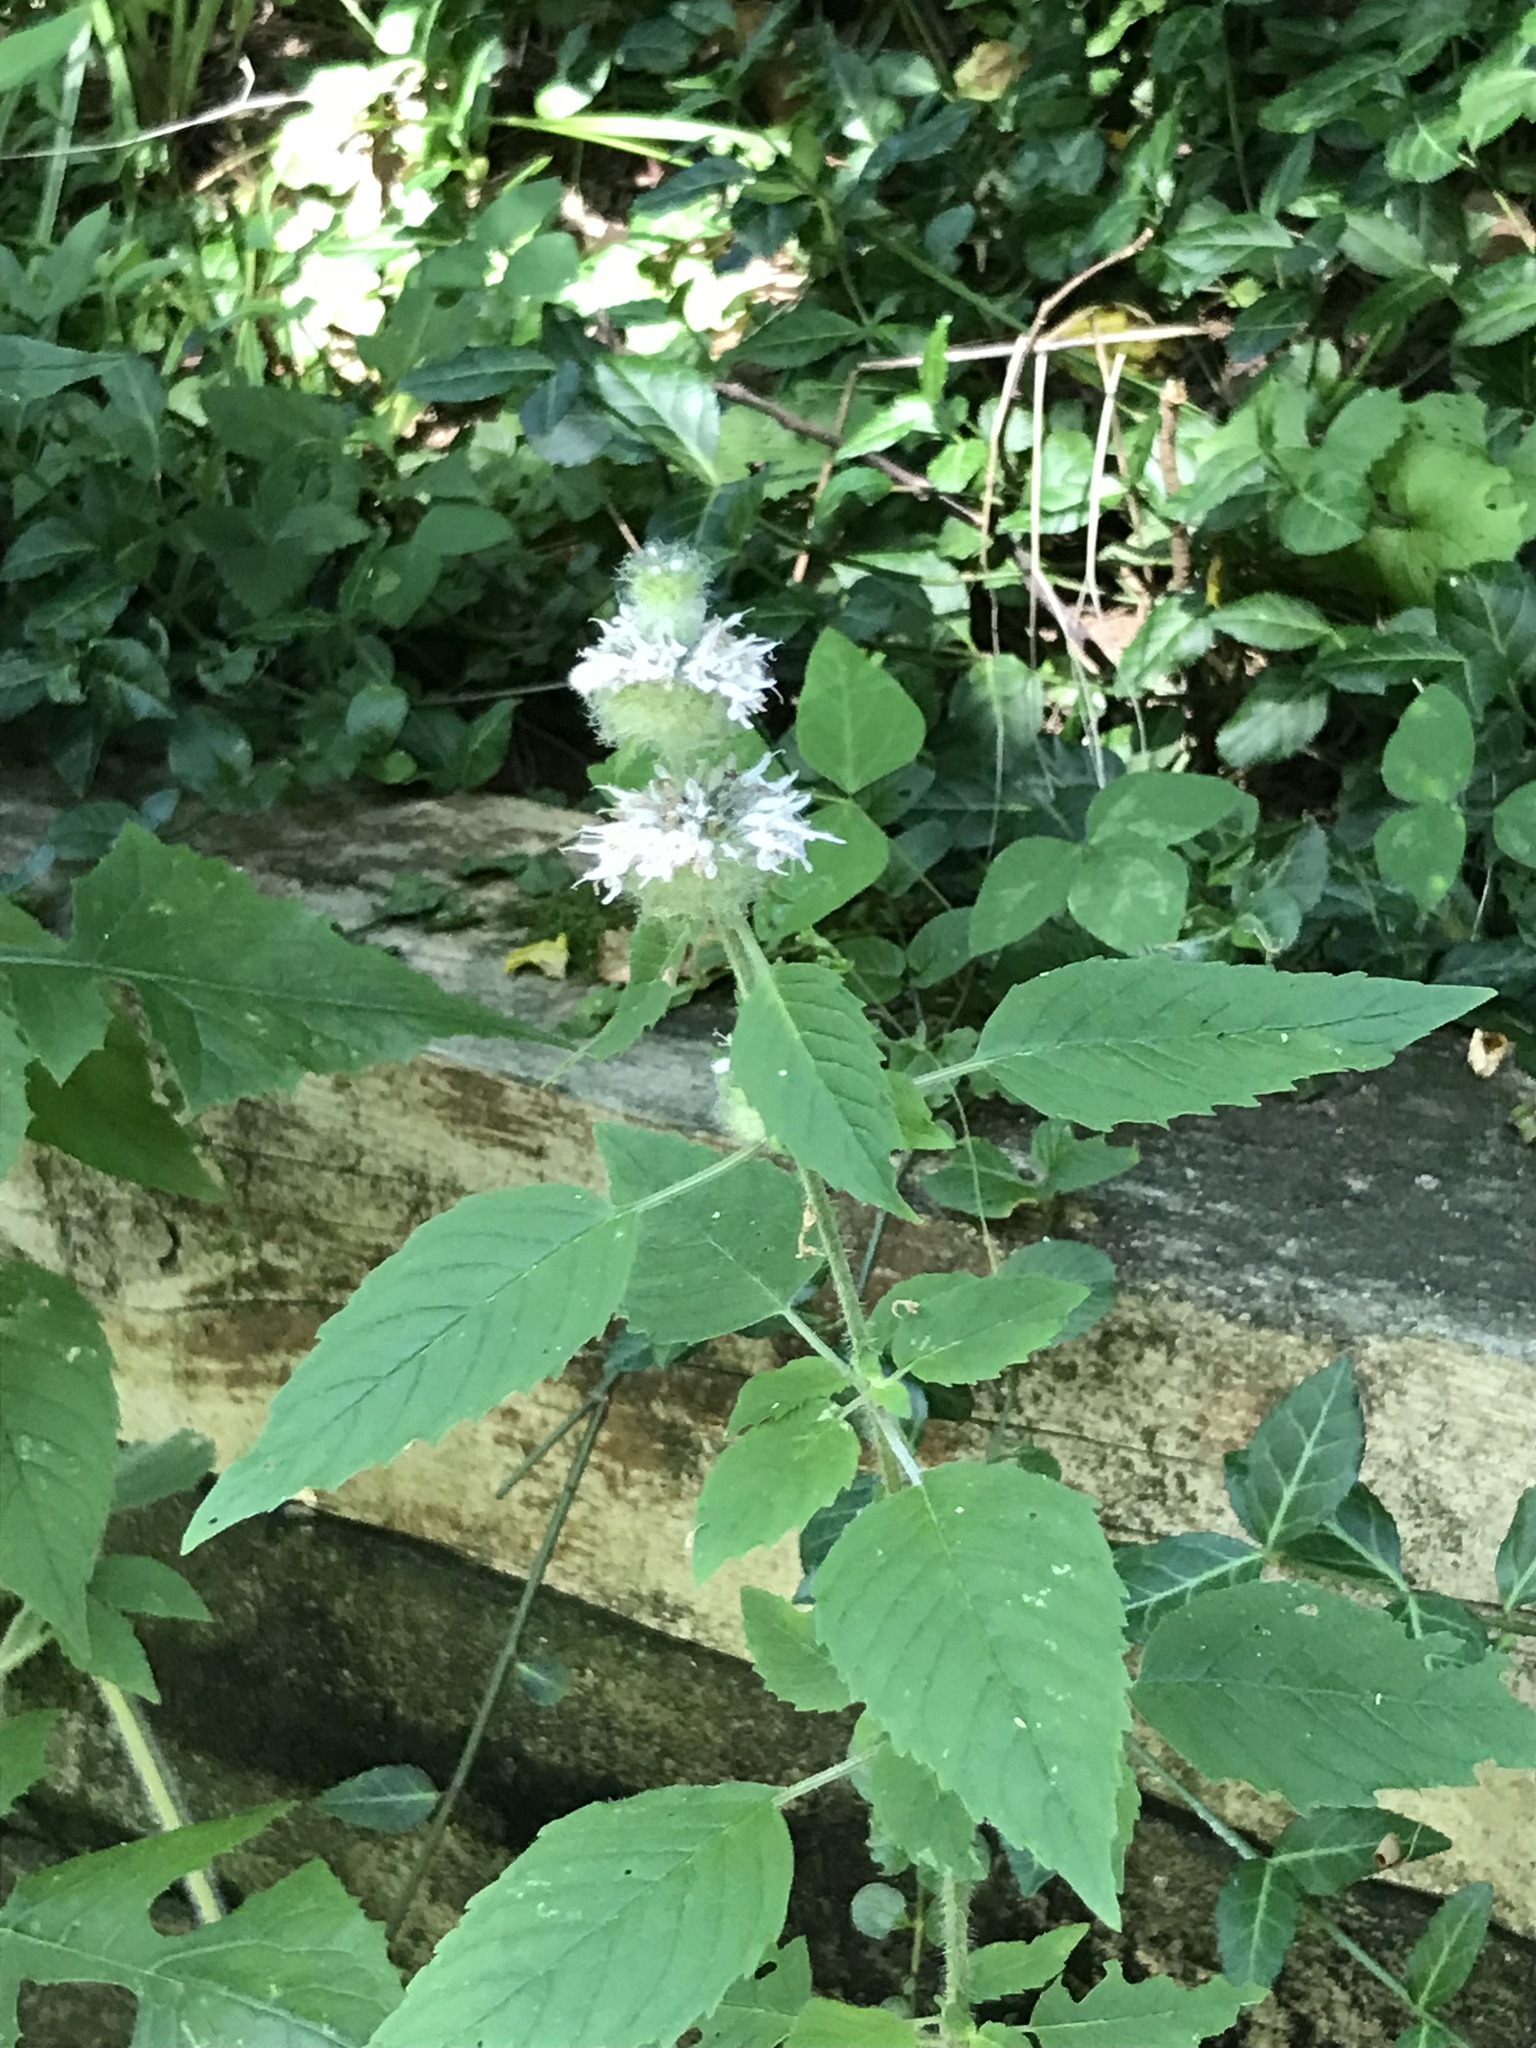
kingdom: Plantae
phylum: Tracheophyta
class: Magnoliopsida
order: Lamiales
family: Lamiaceae
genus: Blephilia
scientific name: Blephilia hirsuta
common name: Hairy blephilia
